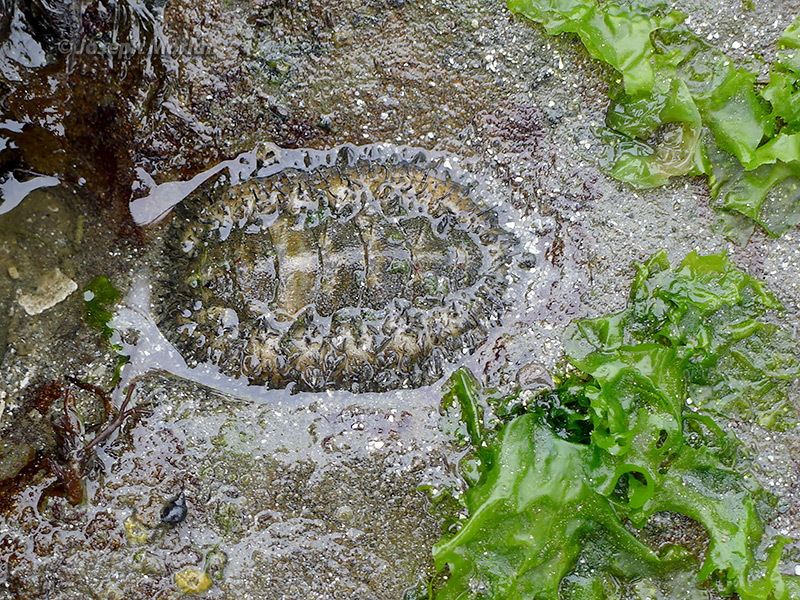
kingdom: Animalia
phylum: Mollusca
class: Polyplacophora
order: Chitonida
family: Mopaliidae
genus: Mopalia
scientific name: Mopalia muscosa
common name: Mossy chiton
